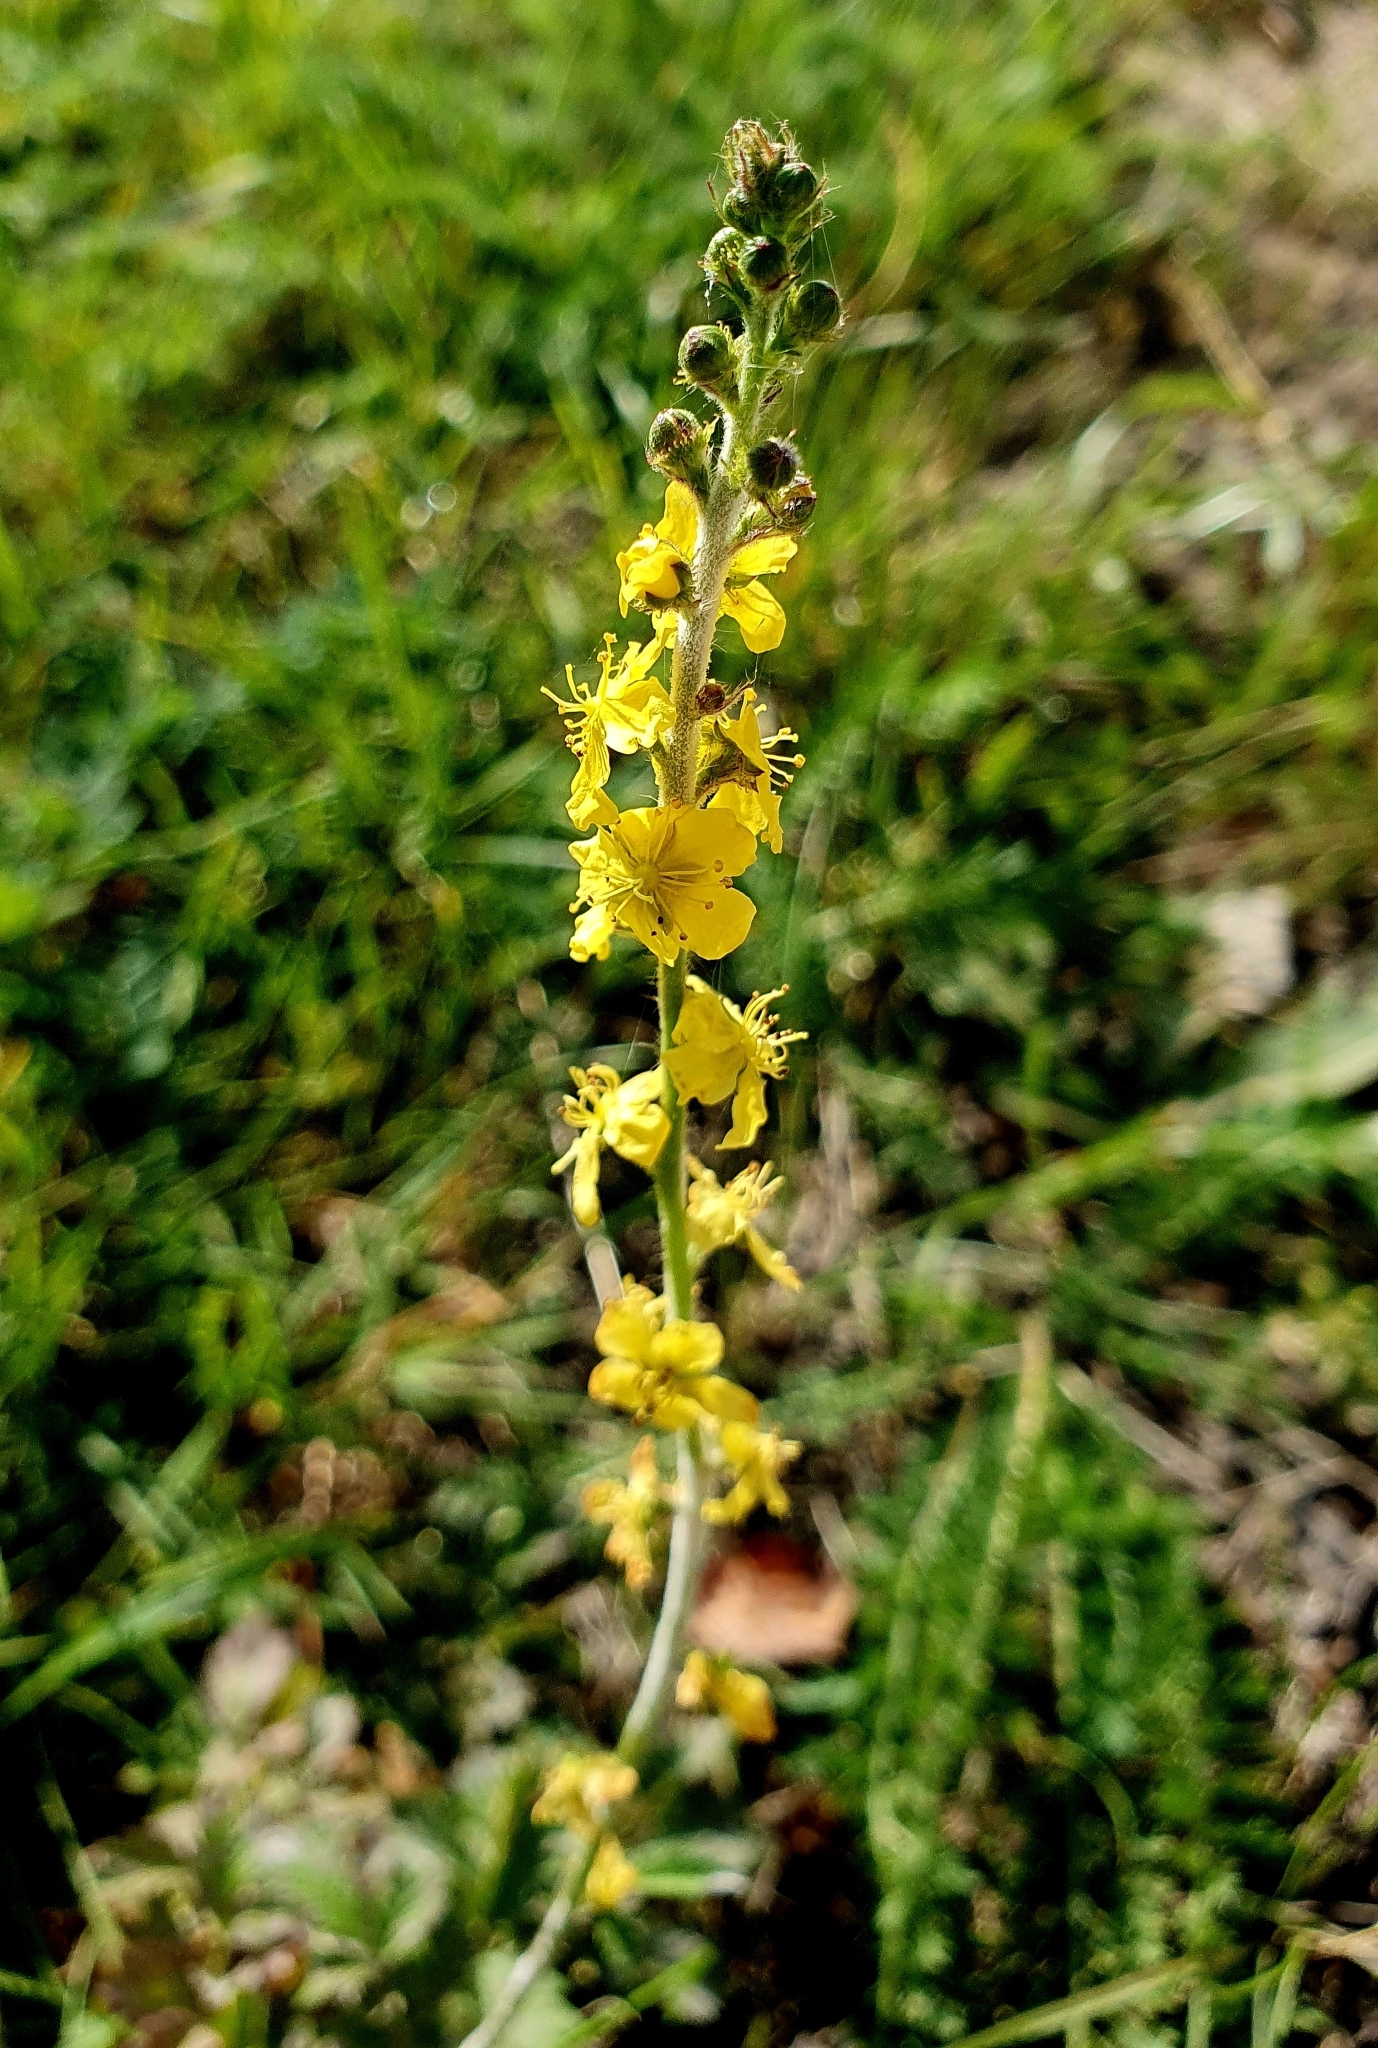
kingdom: Plantae
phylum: Tracheophyta
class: Magnoliopsida
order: Rosales
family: Rosaceae
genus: Agrimonia
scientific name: Agrimonia eupatoria
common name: Agrimony
